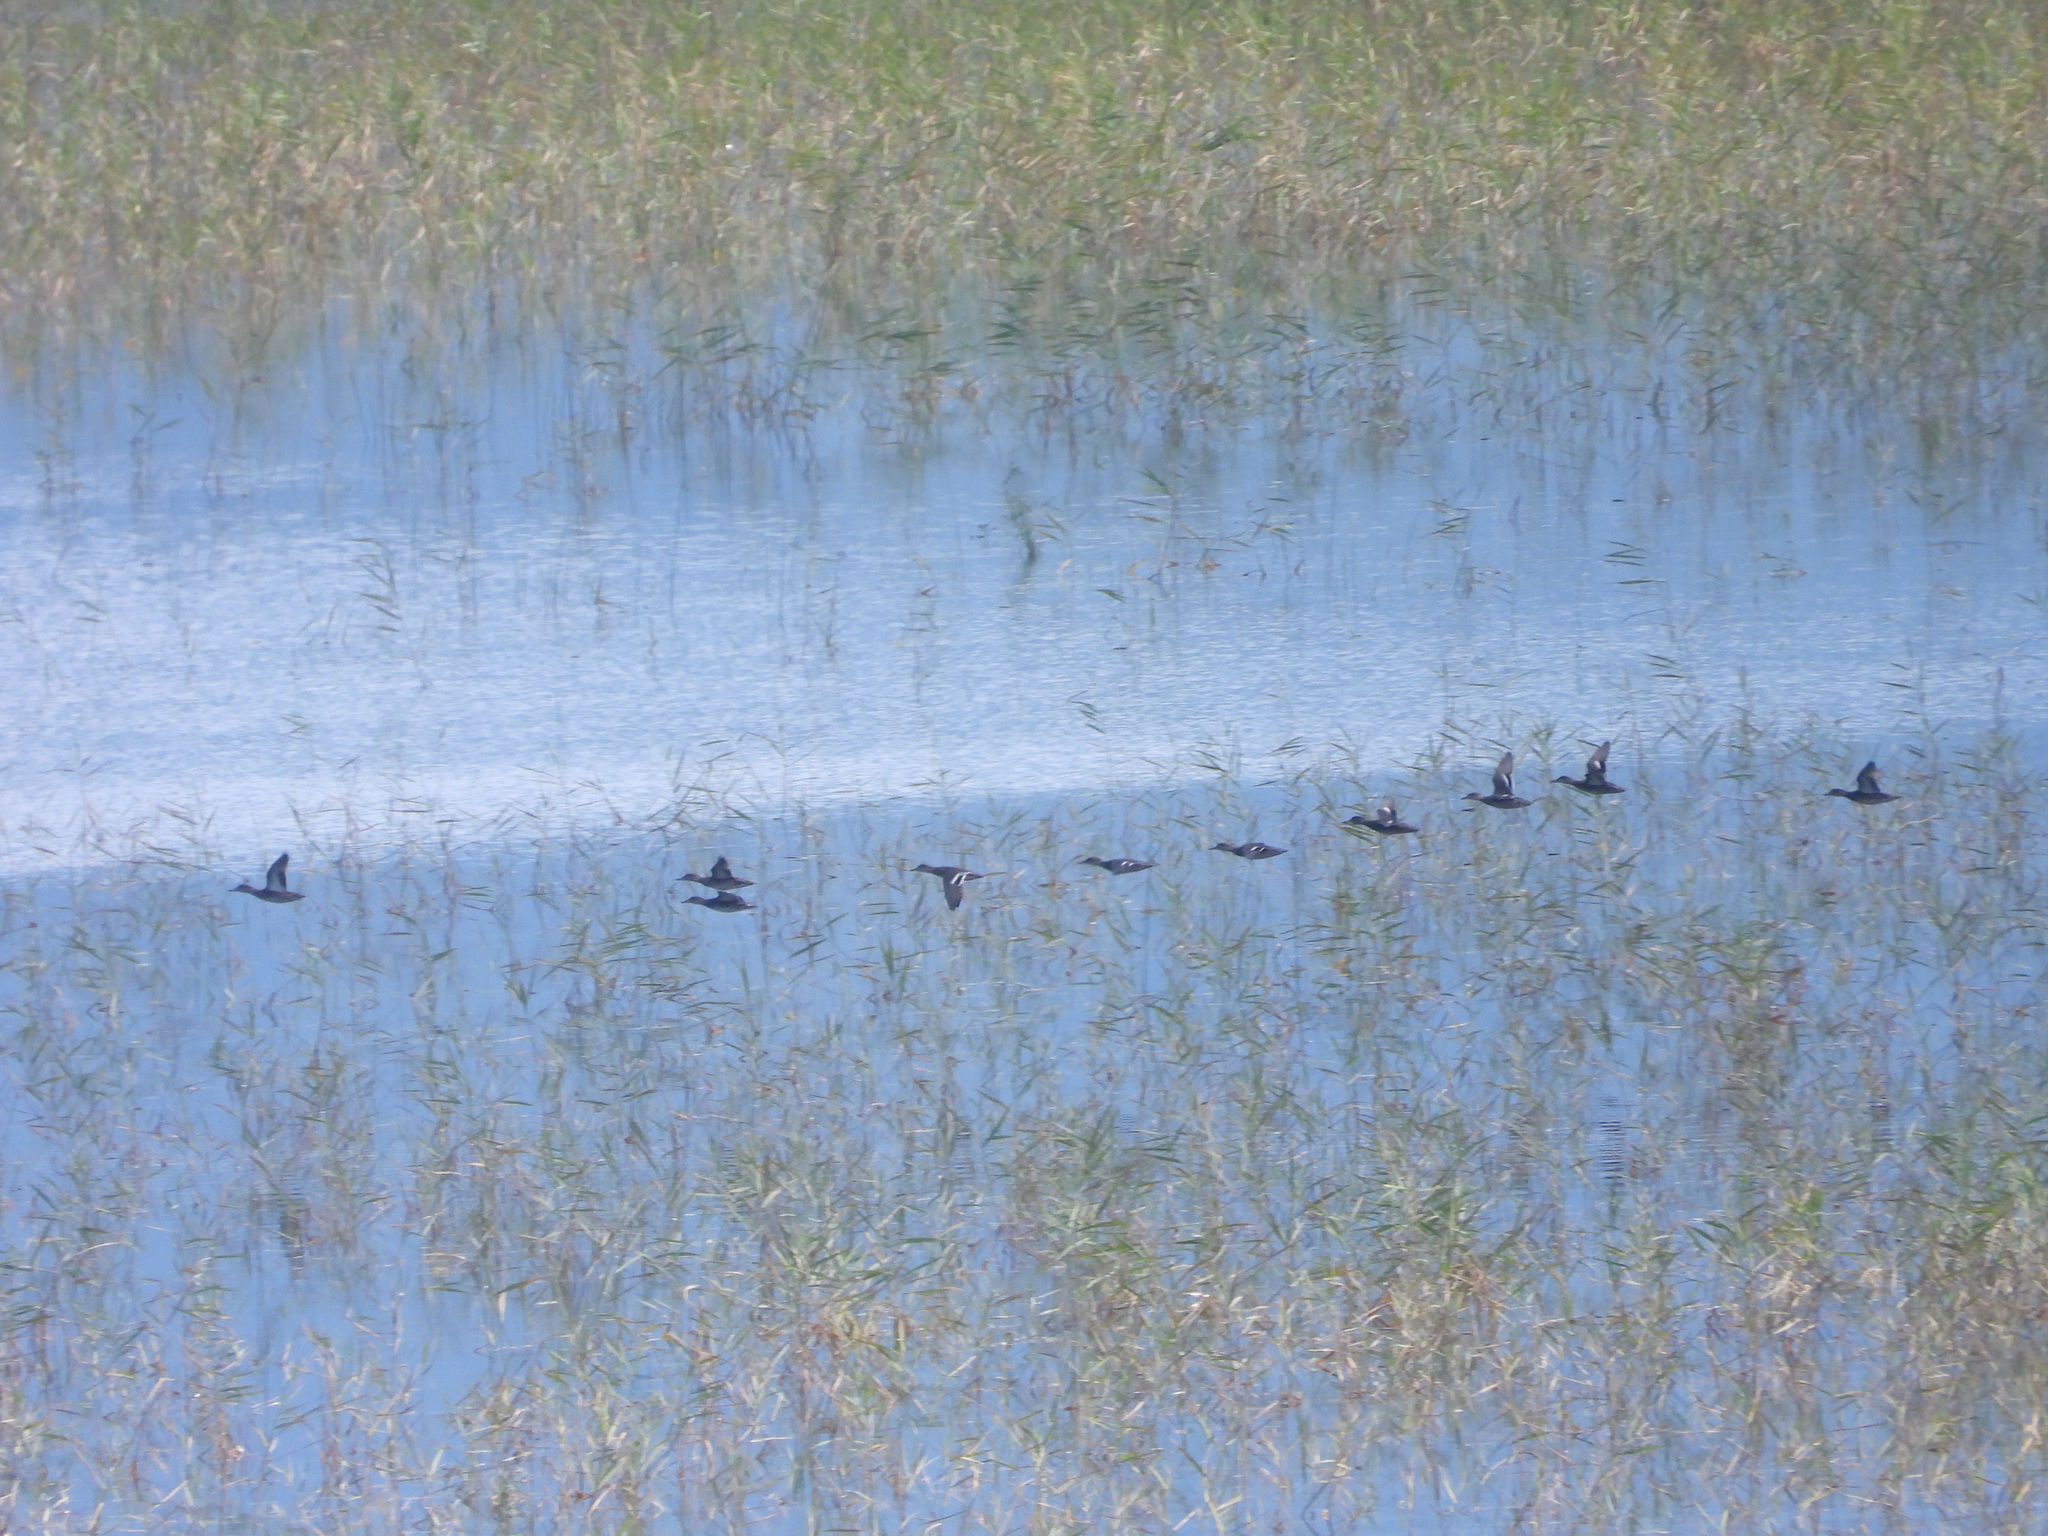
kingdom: Animalia
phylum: Chordata
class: Aves
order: Anseriformes
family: Anatidae
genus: Anas
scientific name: Anas crecca
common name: Eurasian teal
